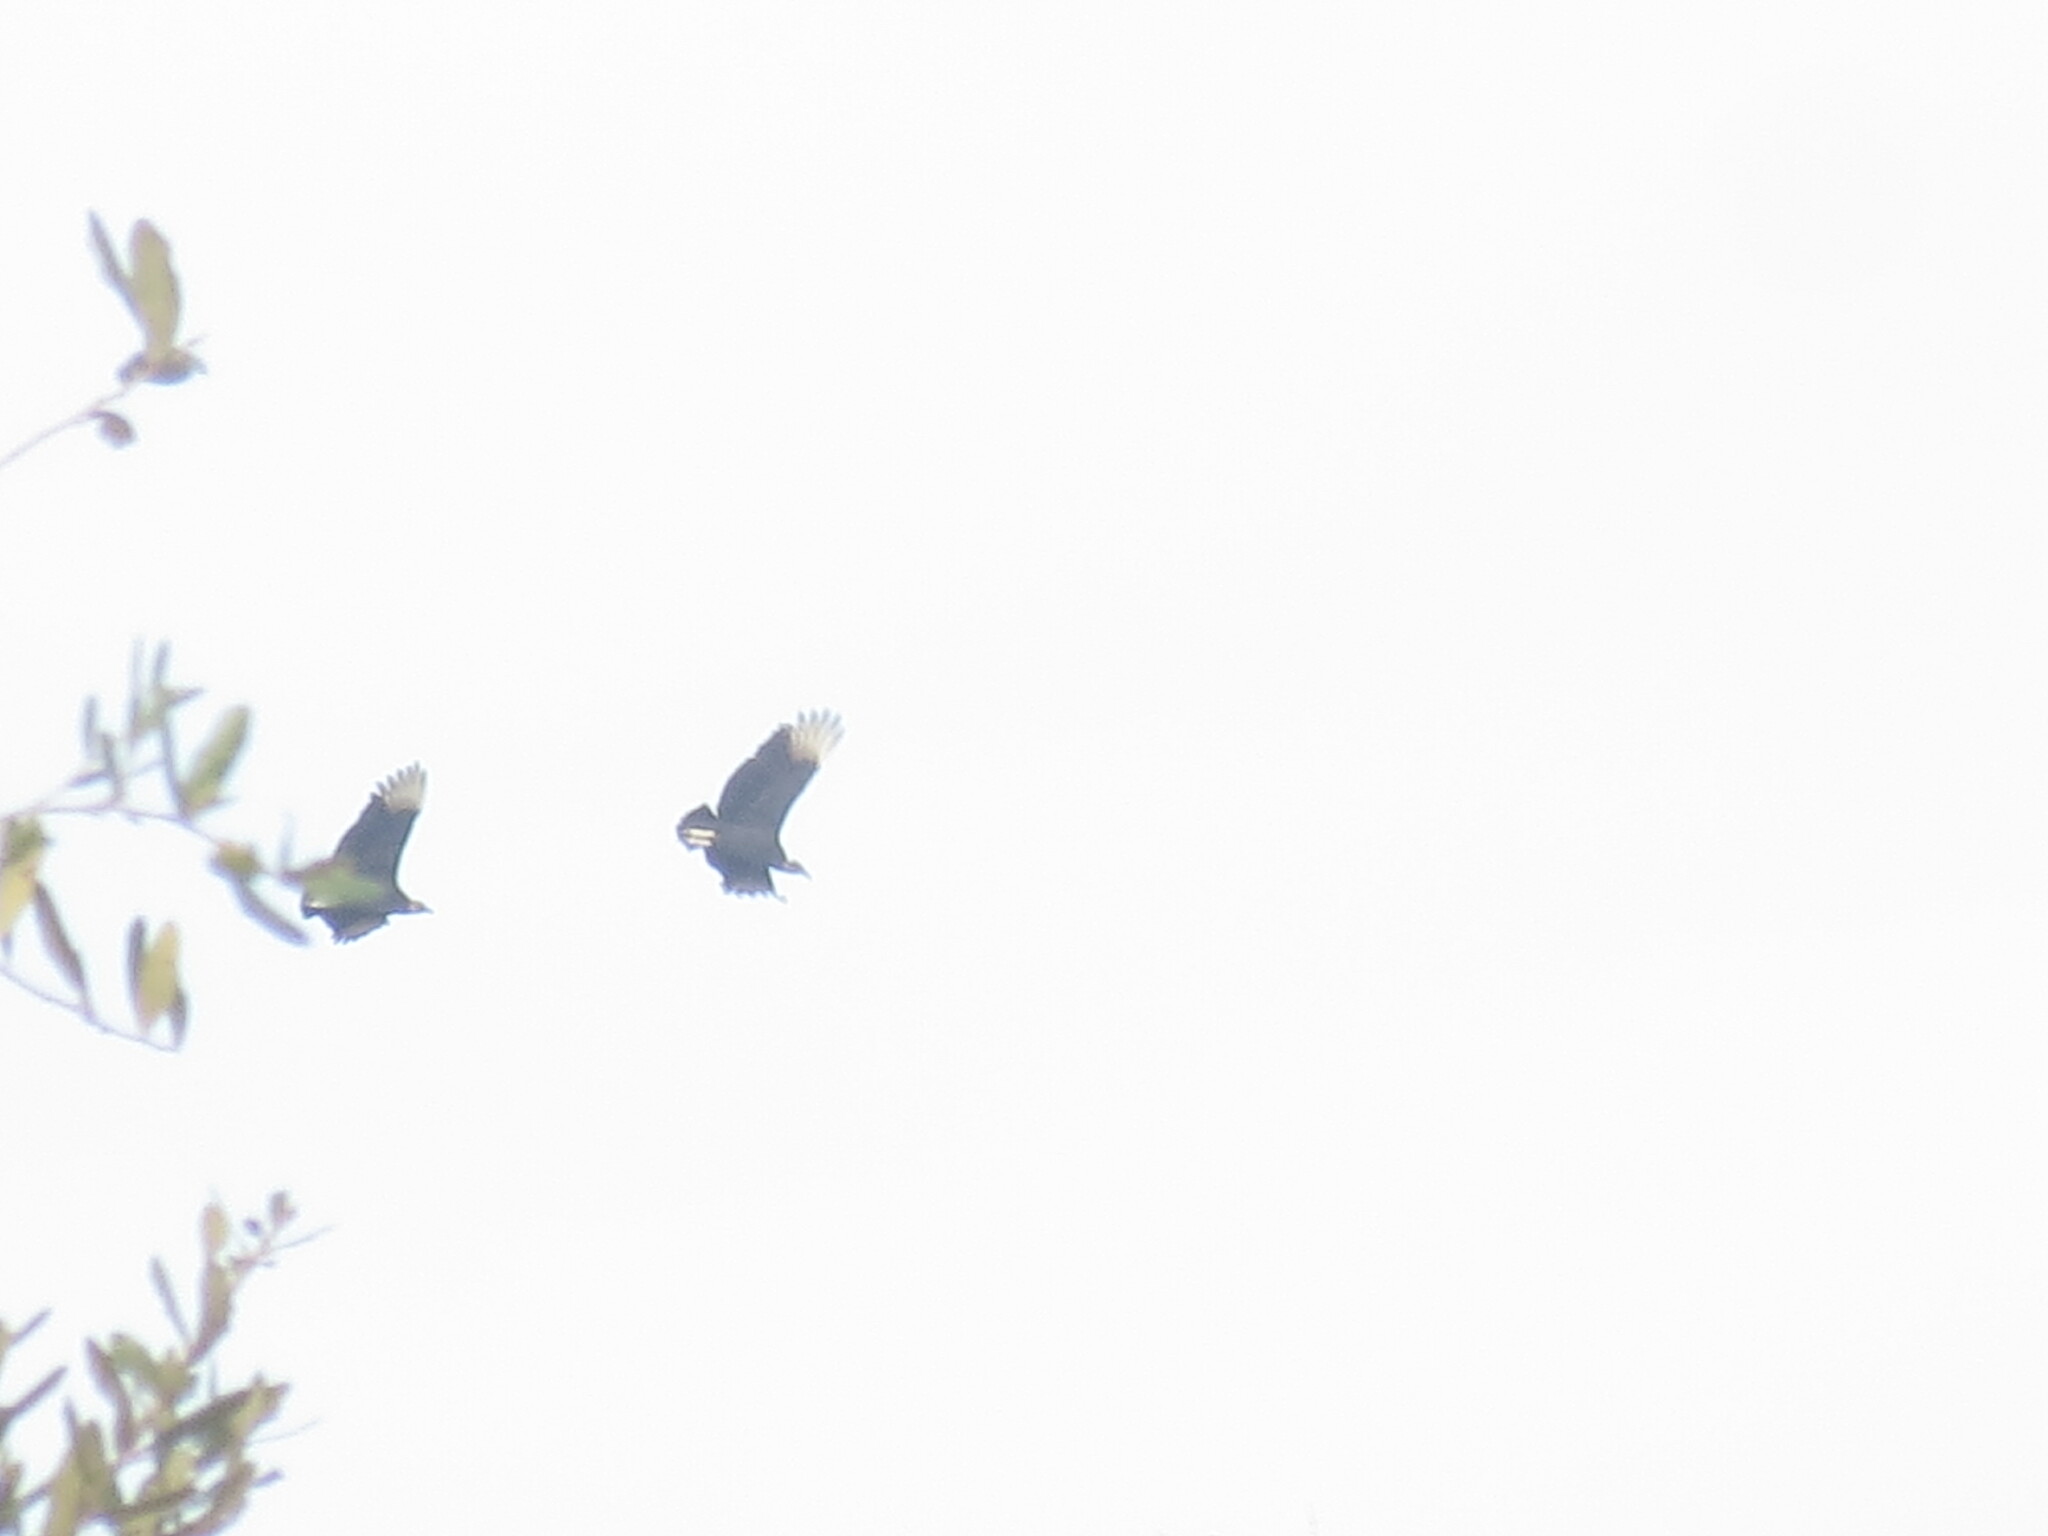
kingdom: Animalia
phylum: Chordata
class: Aves
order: Accipitriformes
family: Cathartidae
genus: Coragyps
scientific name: Coragyps atratus
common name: Black vulture
